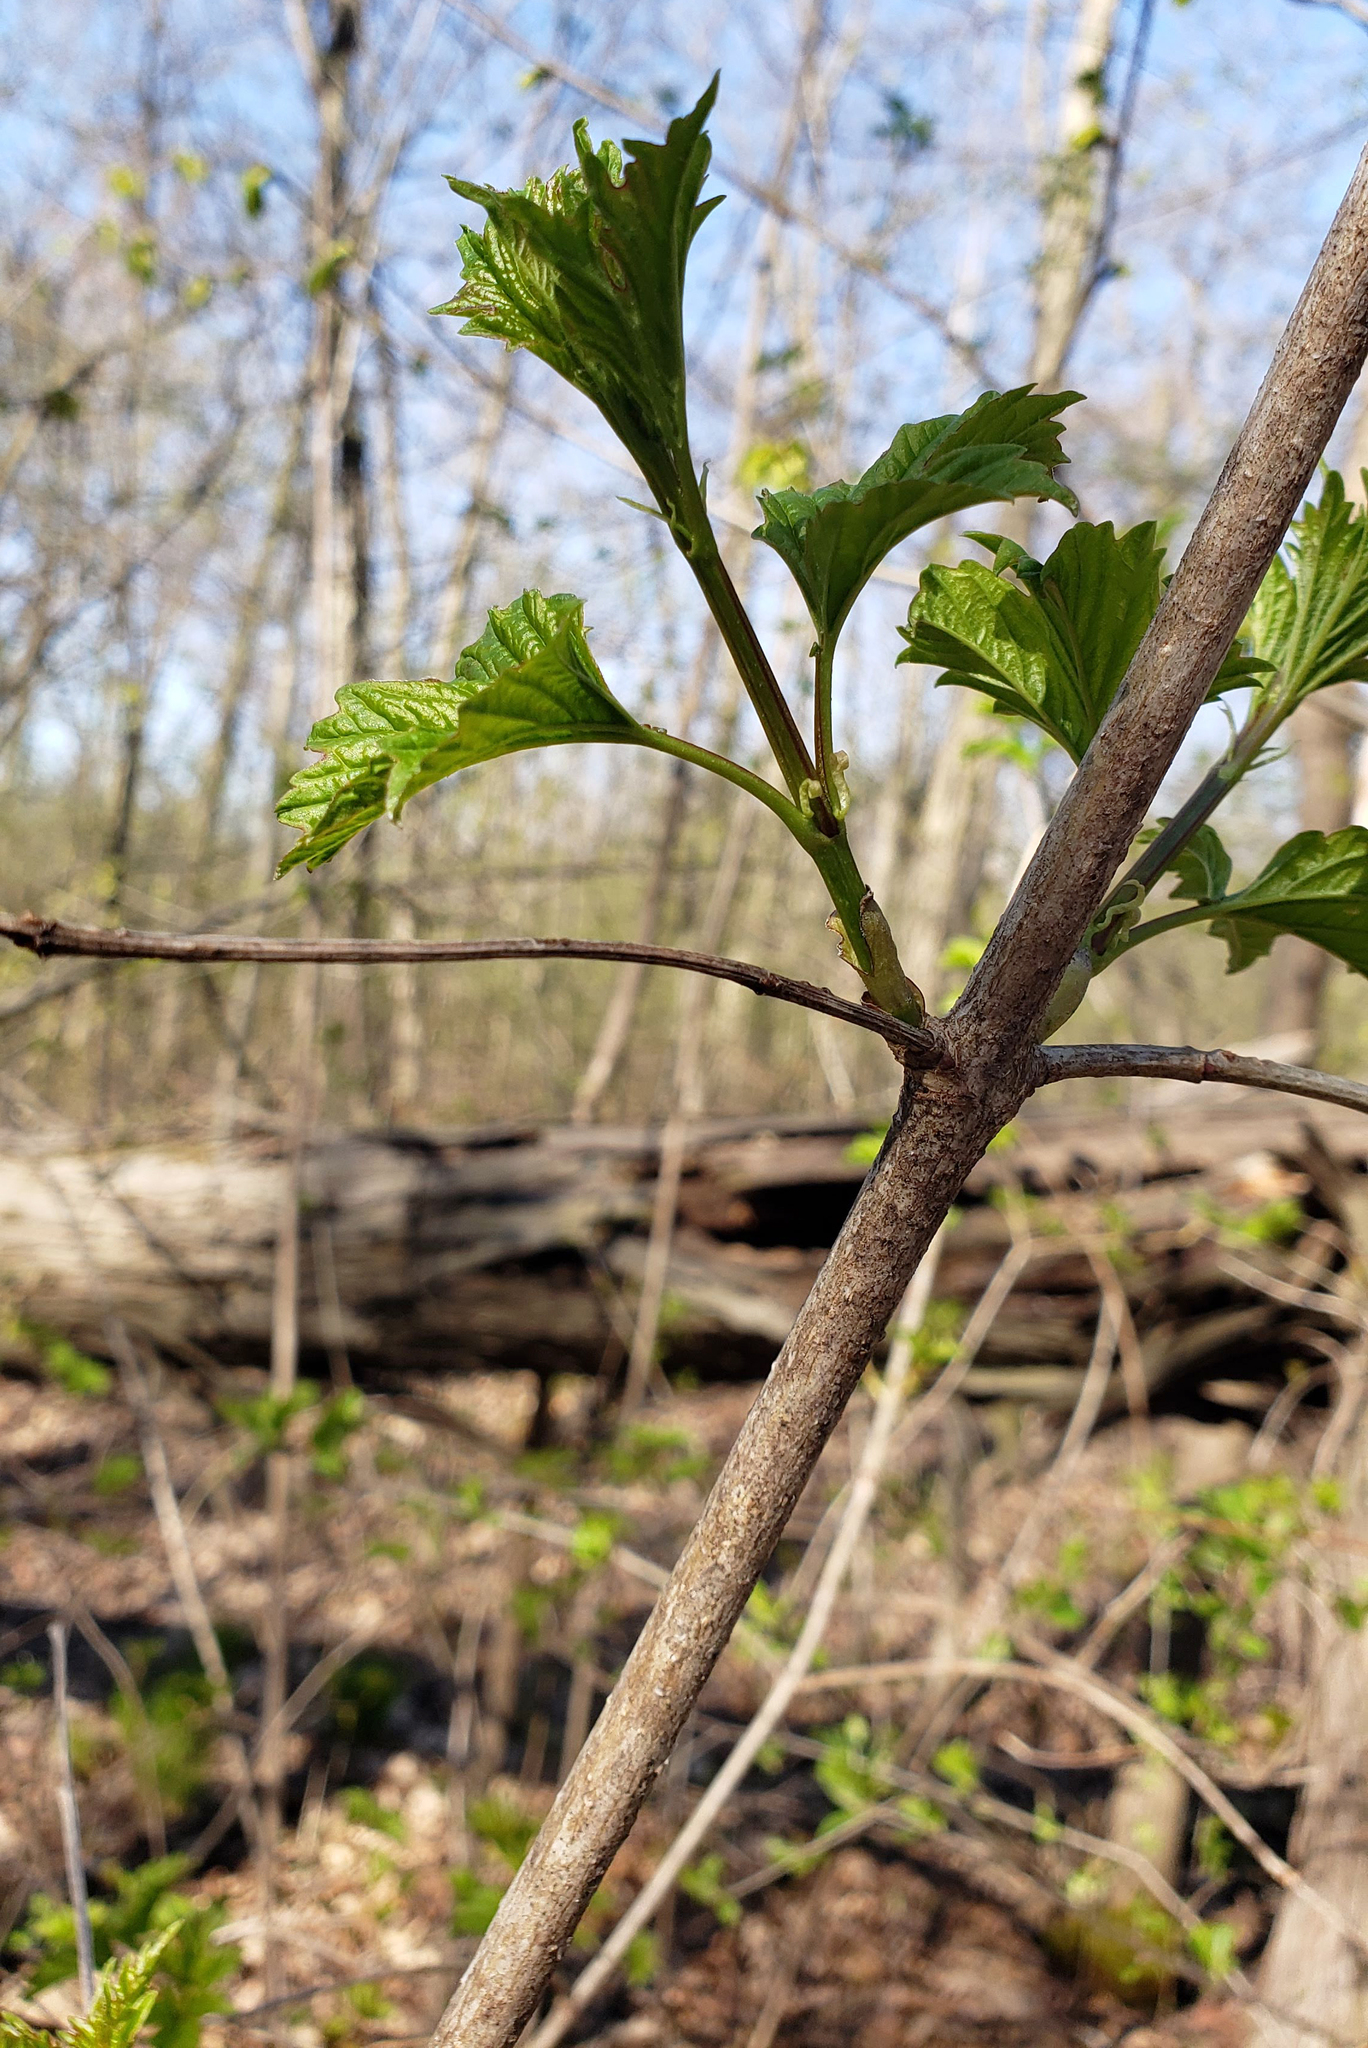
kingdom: Plantae
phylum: Tracheophyta
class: Magnoliopsida
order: Dipsacales
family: Viburnaceae
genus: Viburnum
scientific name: Viburnum opulus
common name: Guelder-rose
